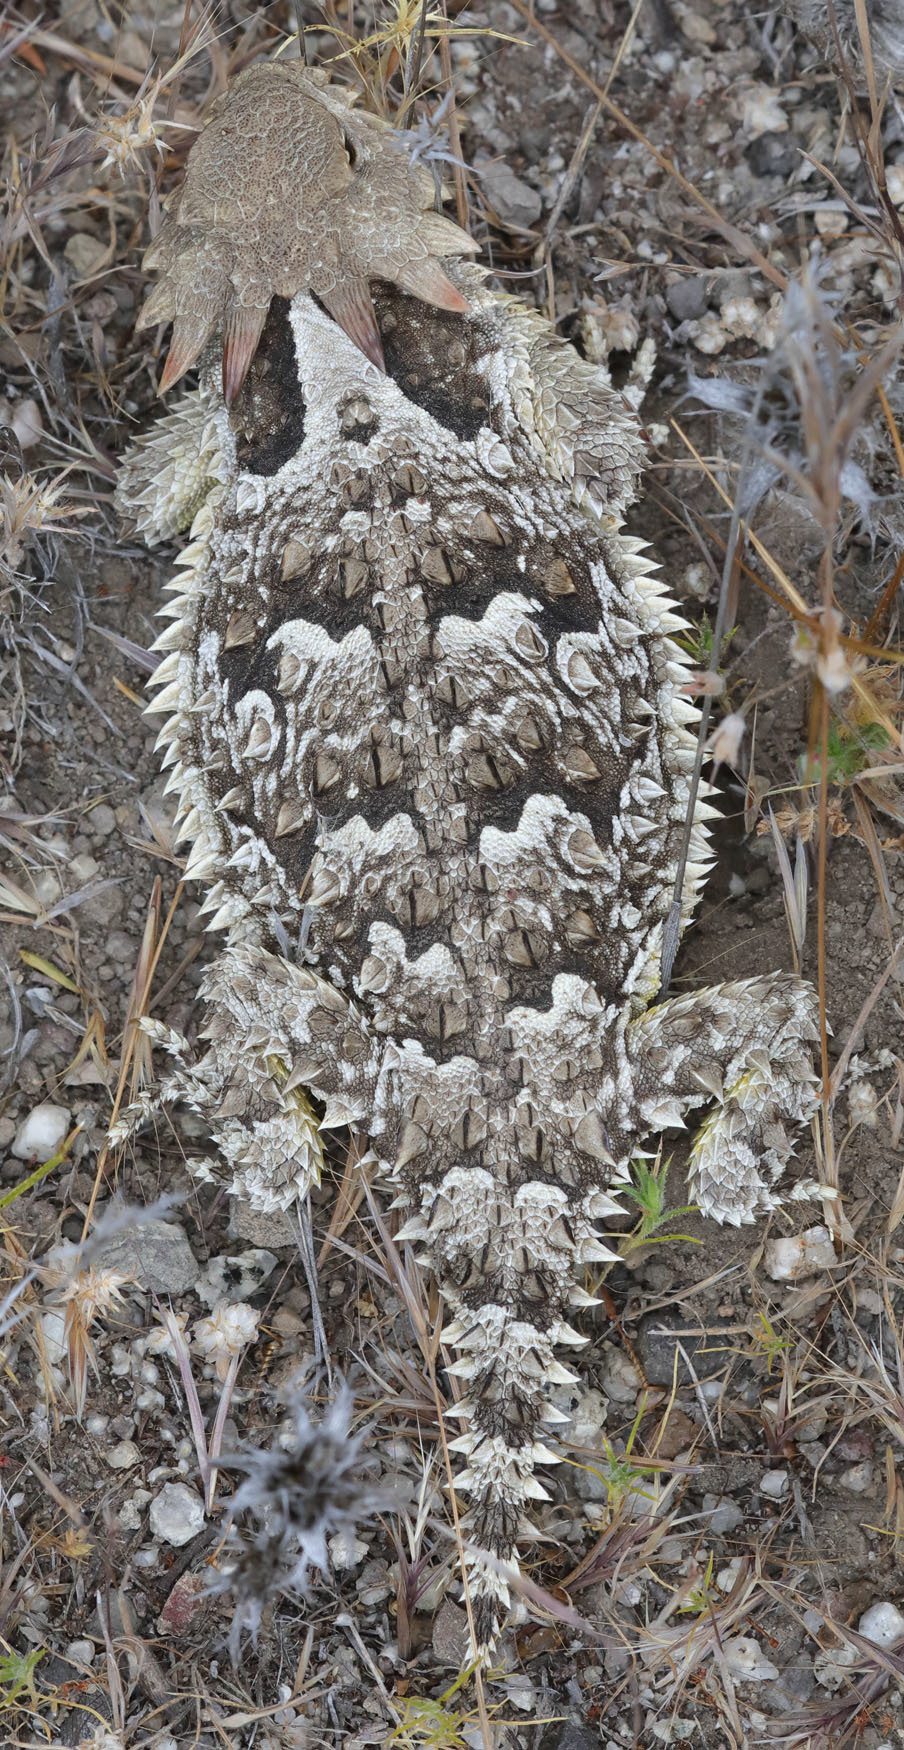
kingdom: Animalia
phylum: Chordata
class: Squamata
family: Phrynosomatidae
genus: Phrynosoma
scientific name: Phrynosoma blainvillii
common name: San diego horned lizard
